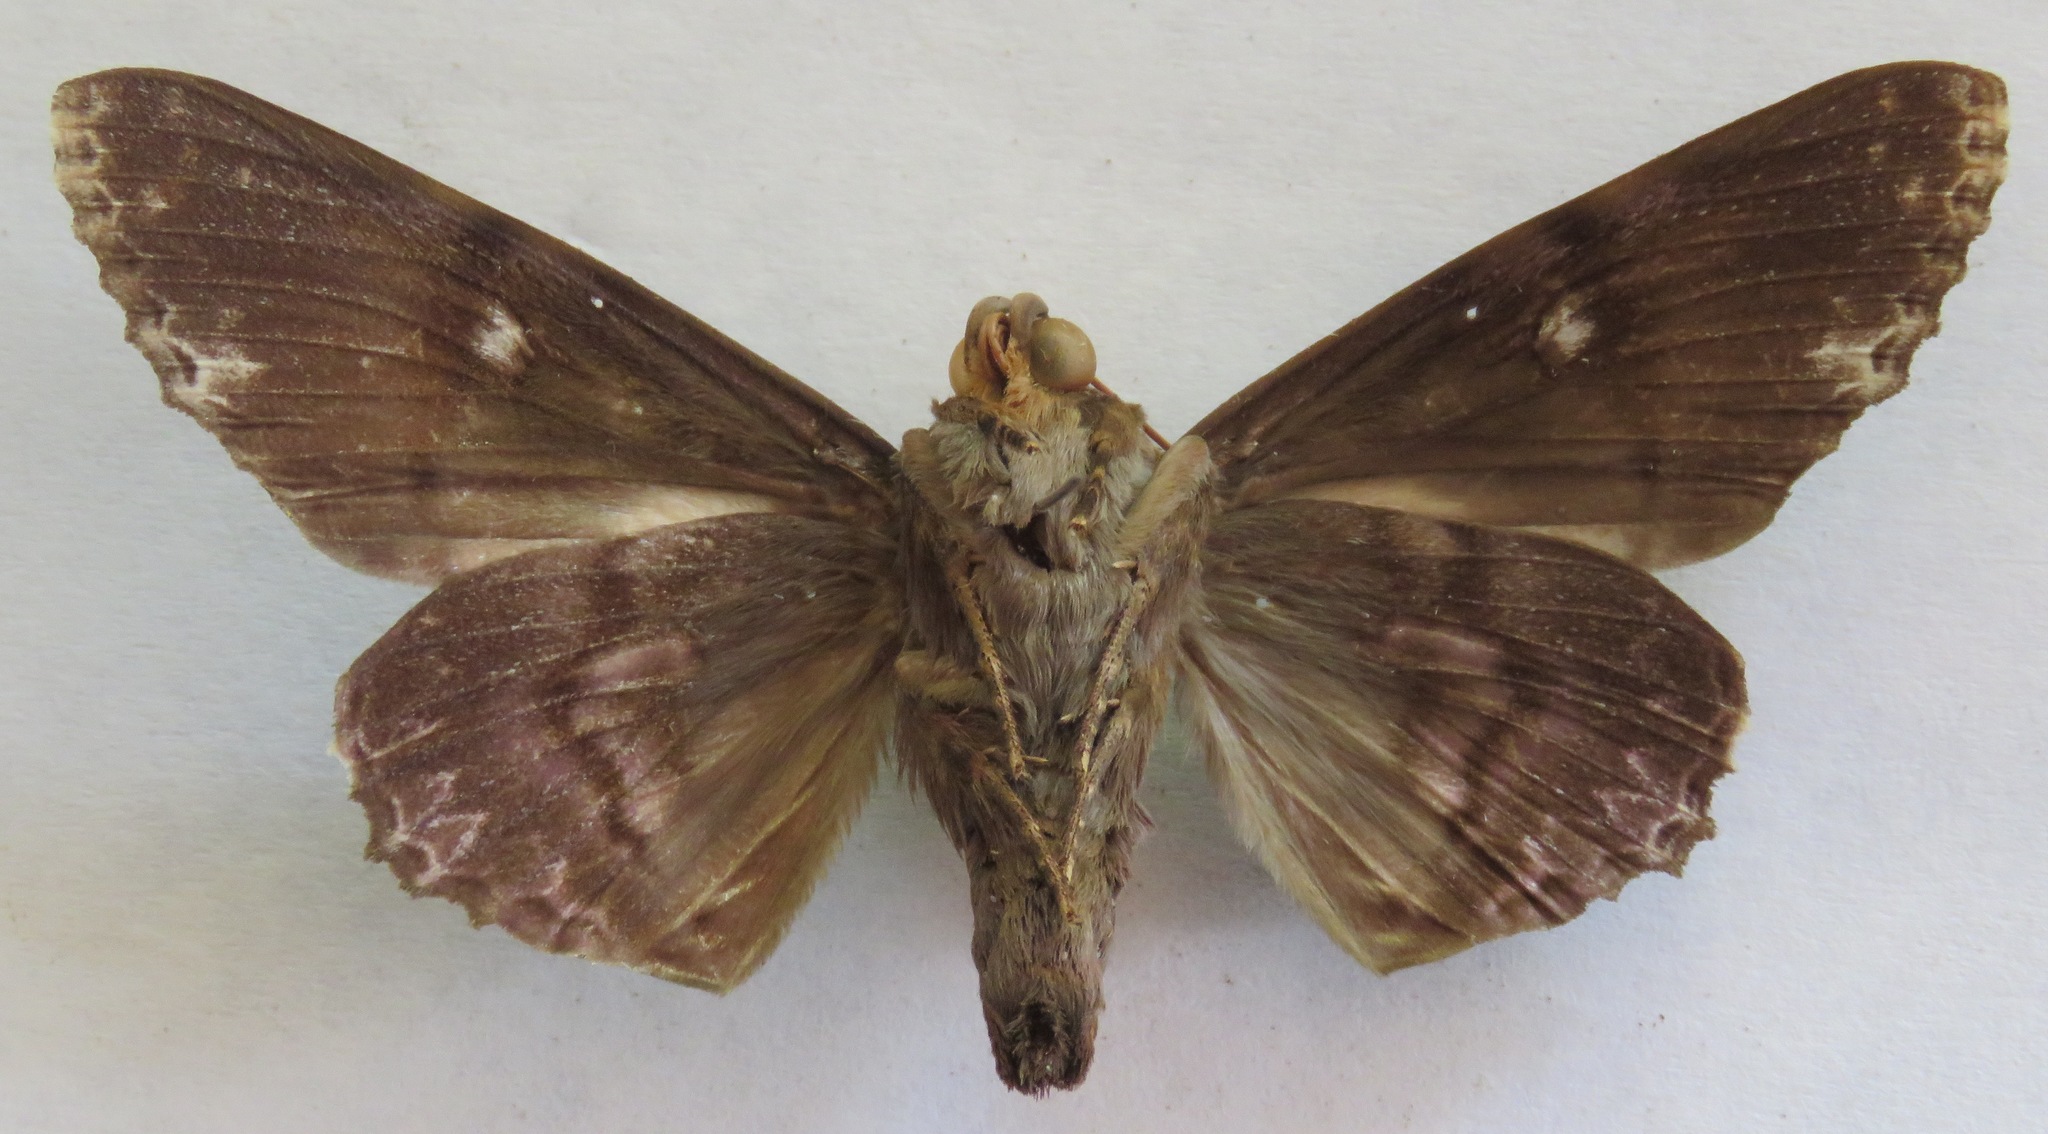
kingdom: Animalia
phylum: Arthropoda
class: Insecta
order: Lepidoptera
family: Erebidae
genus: Pararcte
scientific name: Pararcte schneideriana
